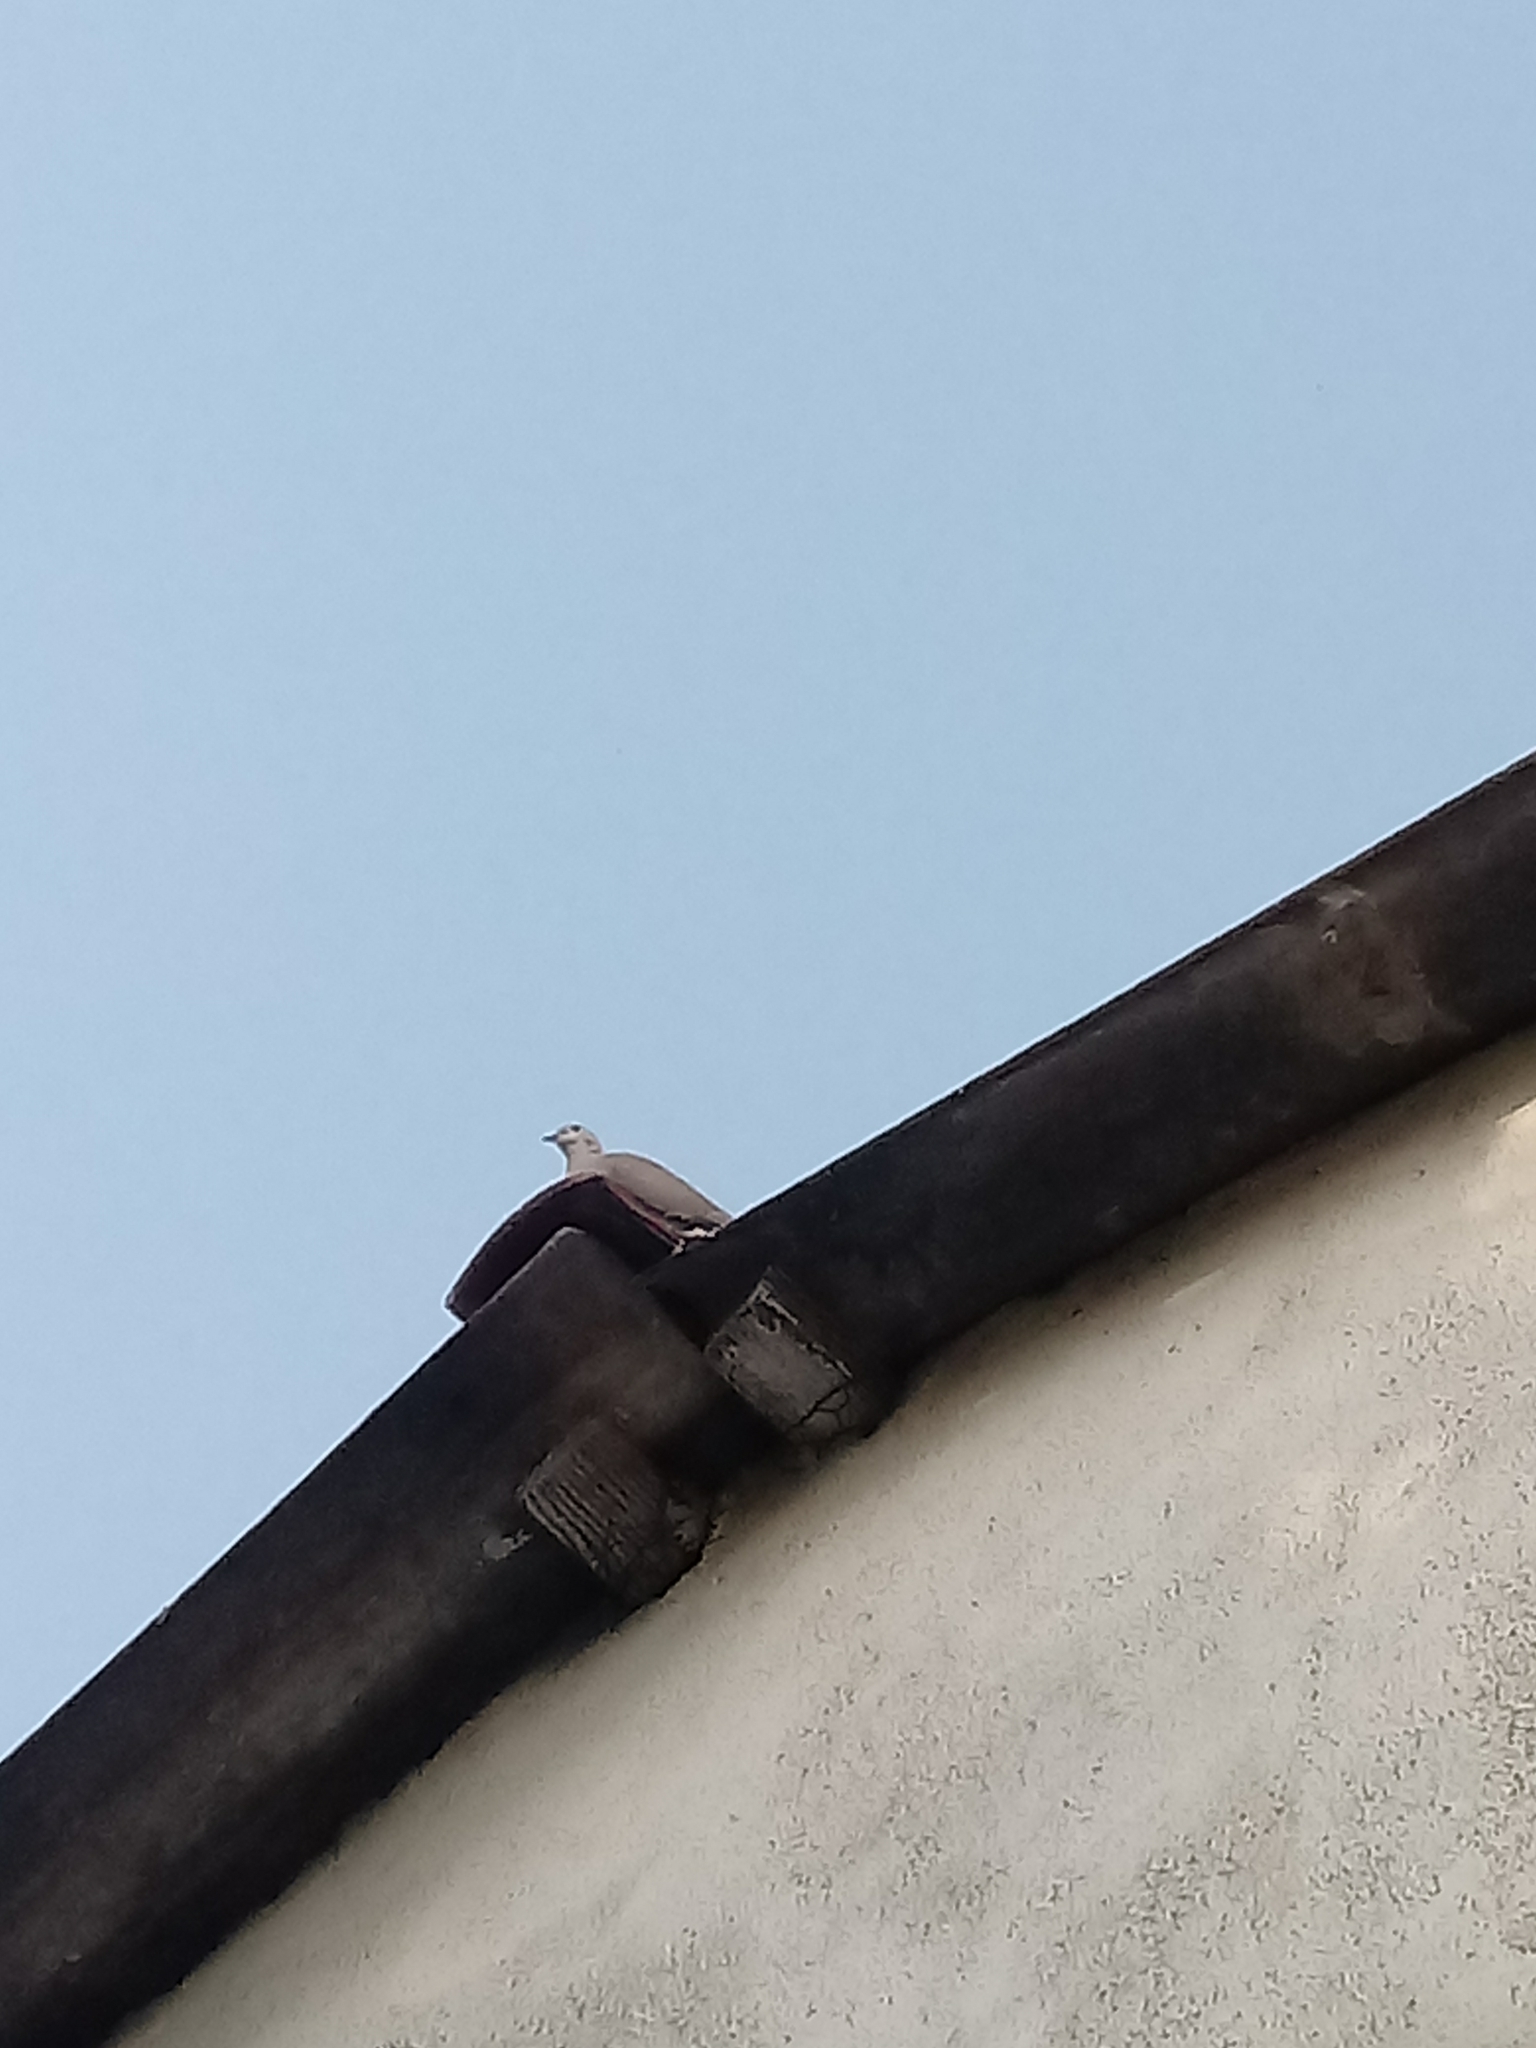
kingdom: Animalia
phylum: Chordata
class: Aves
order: Columbiformes
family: Columbidae
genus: Streptopelia
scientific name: Streptopelia decaocto
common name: Eurasian collared dove
